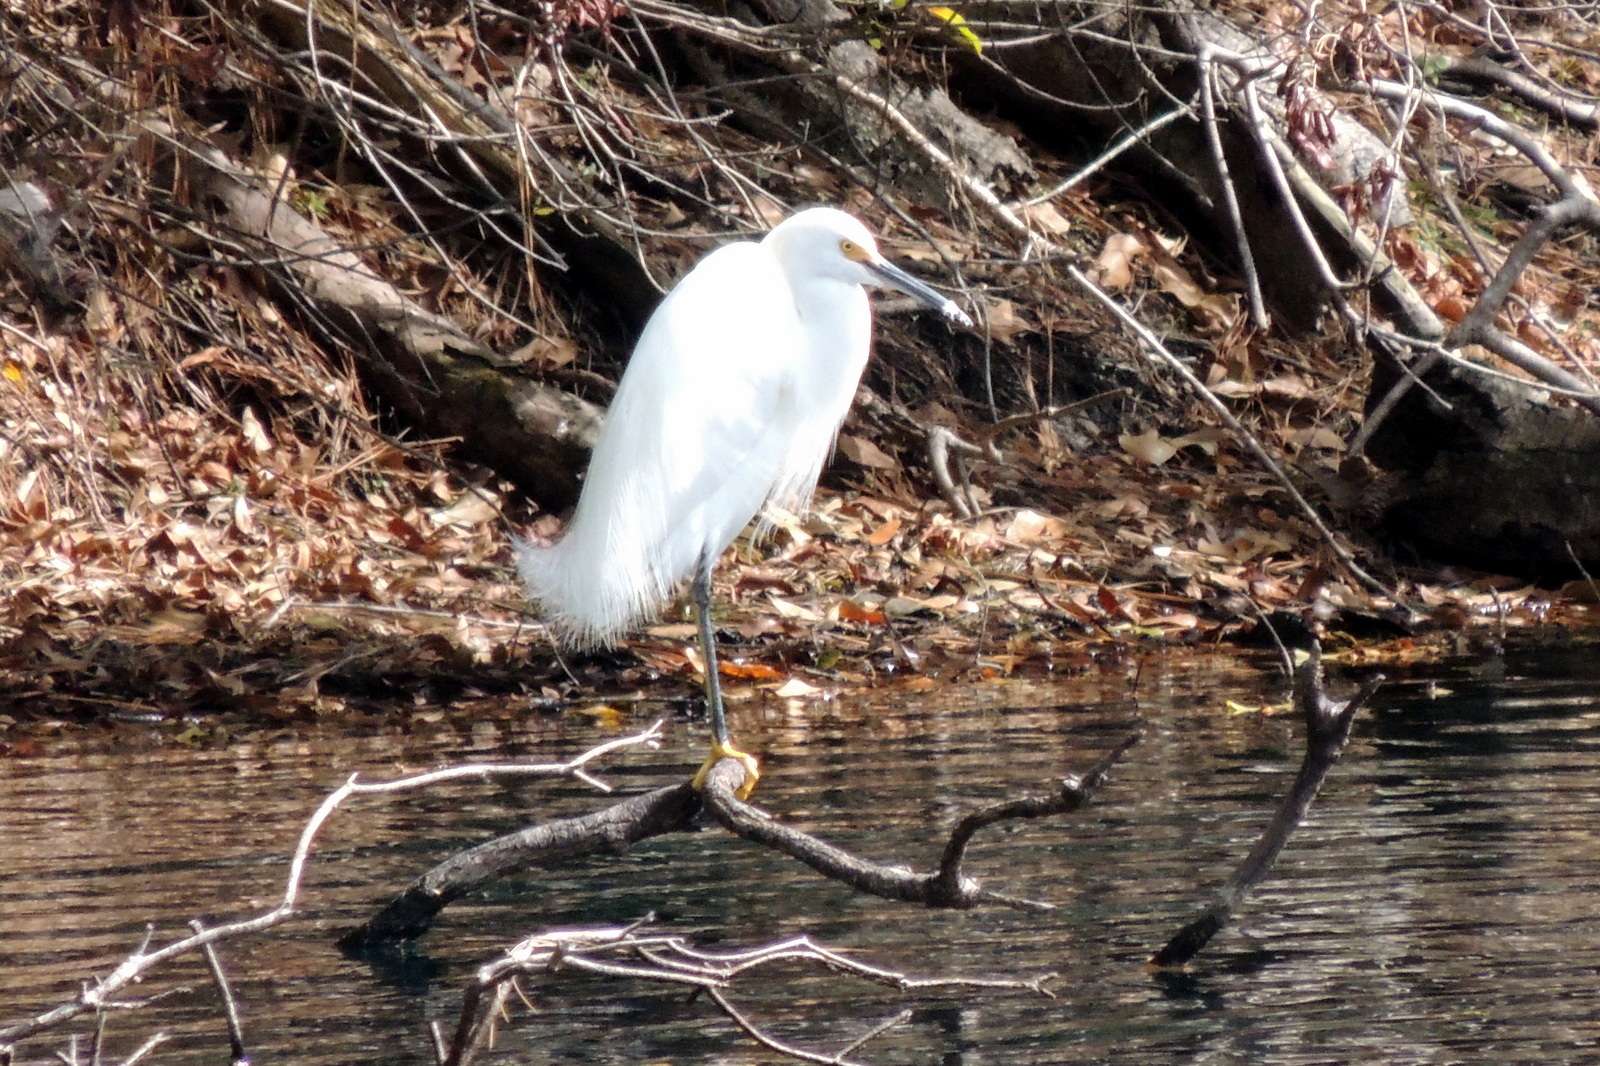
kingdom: Animalia
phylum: Chordata
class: Aves
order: Pelecaniformes
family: Ardeidae
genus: Egretta
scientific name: Egretta thula
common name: Snowy egret
